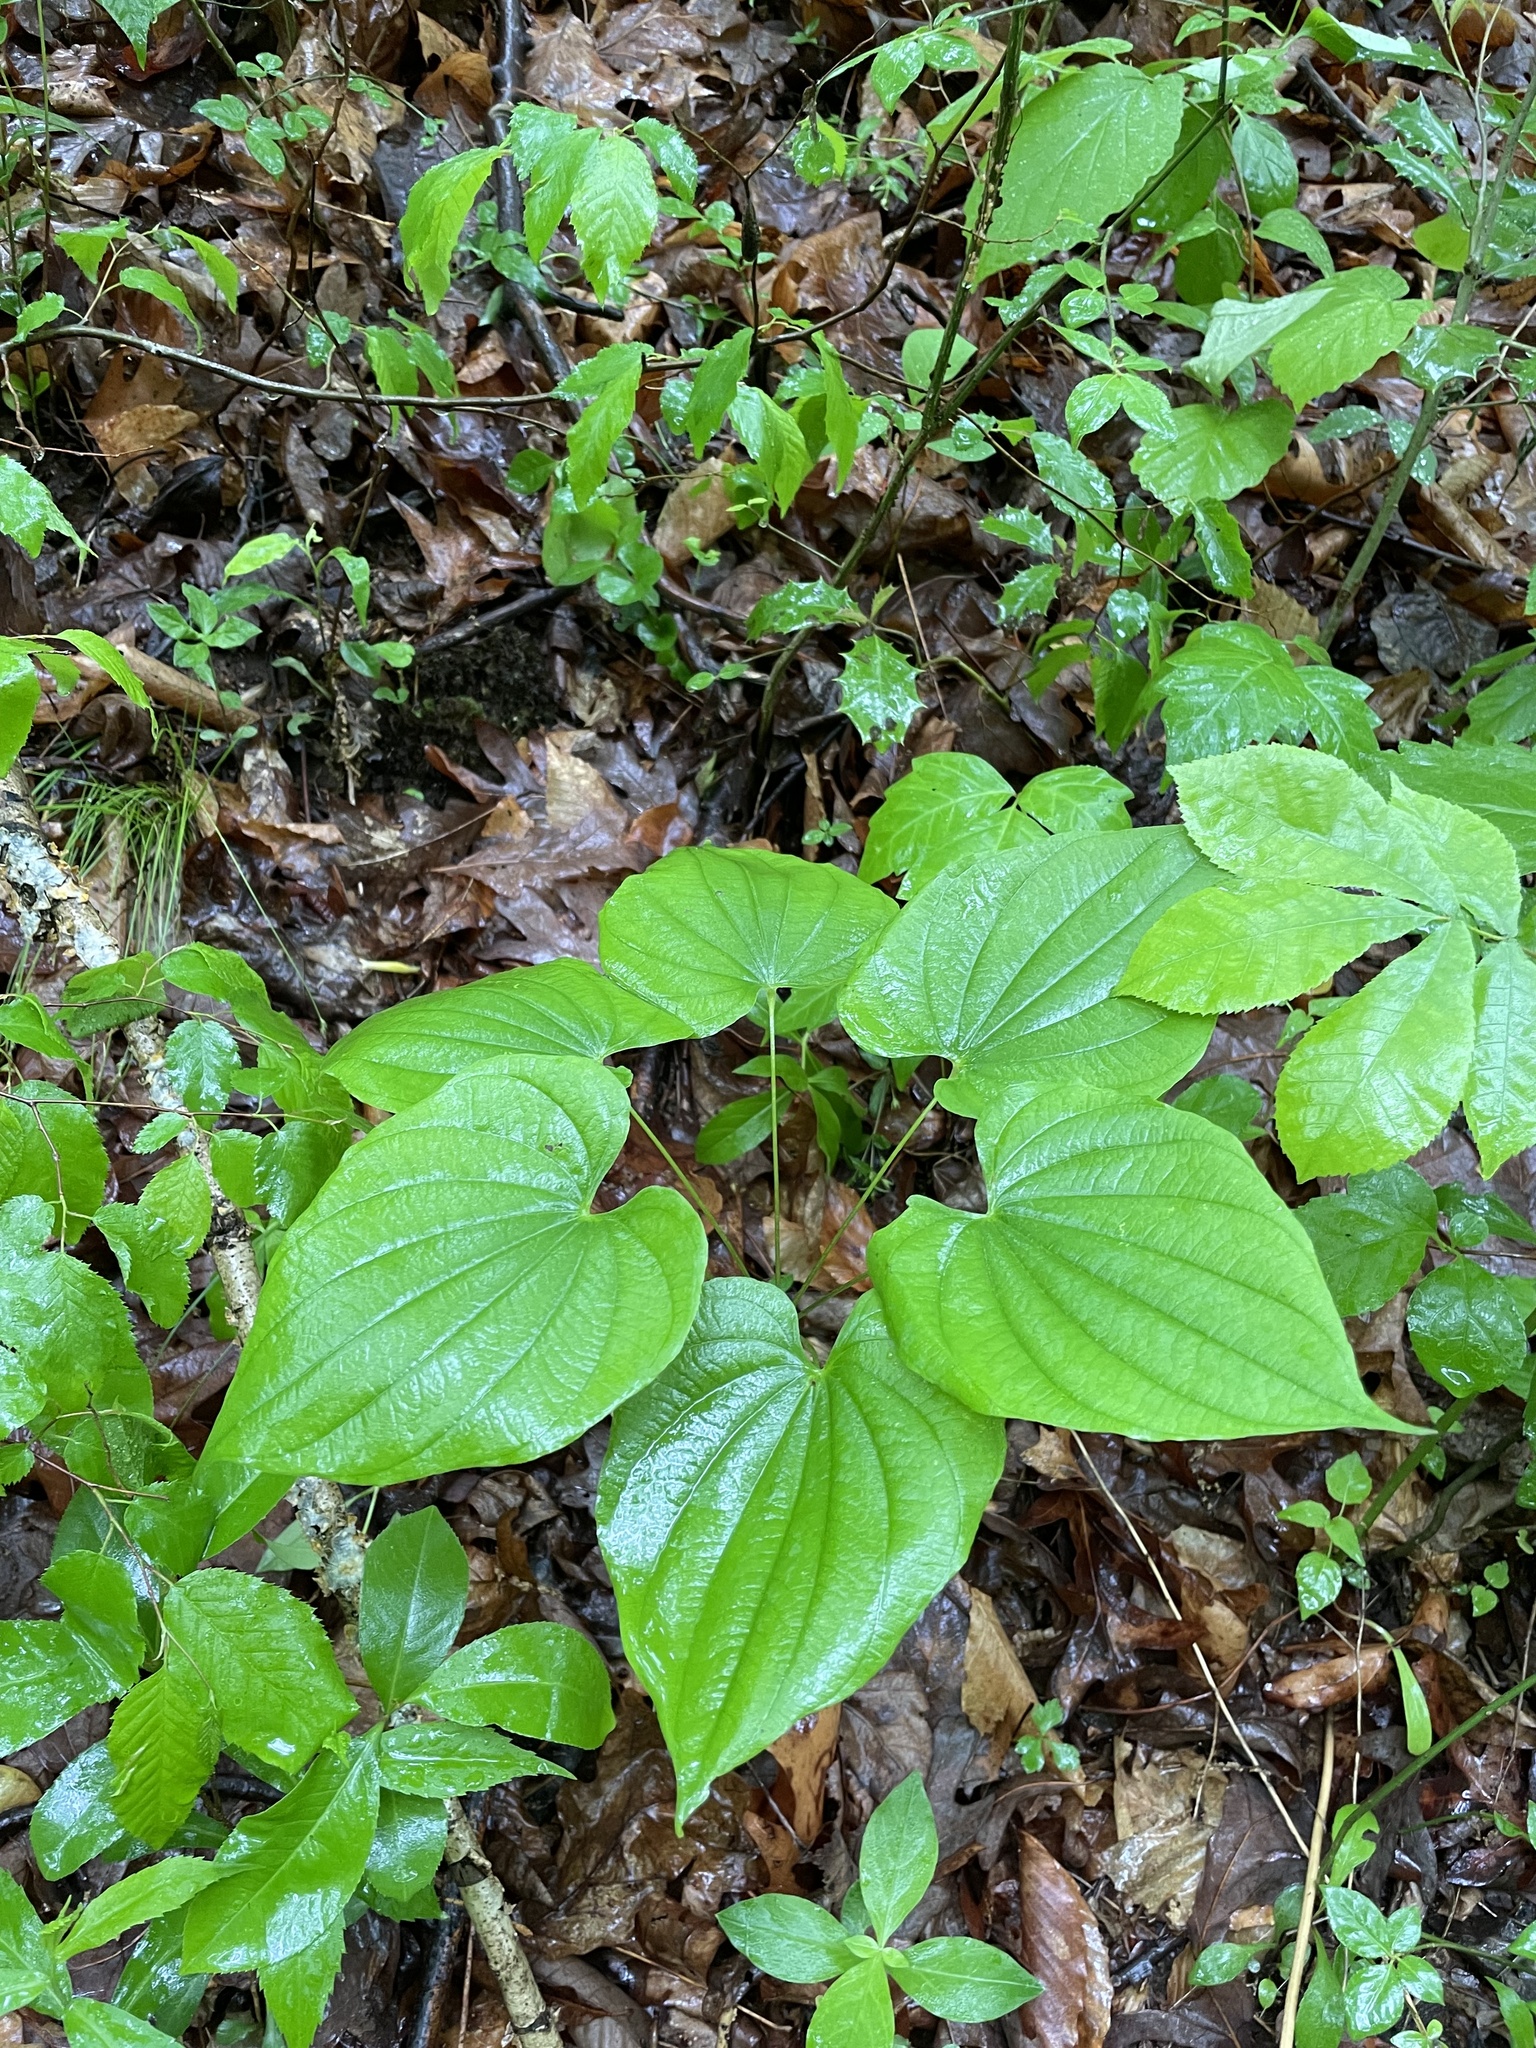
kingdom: Plantae
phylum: Tracheophyta
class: Liliopsida
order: Dioscoreales
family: Dioscoreaceae
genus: Dioscorea
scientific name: Dioscorea villosa
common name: Wild yam
